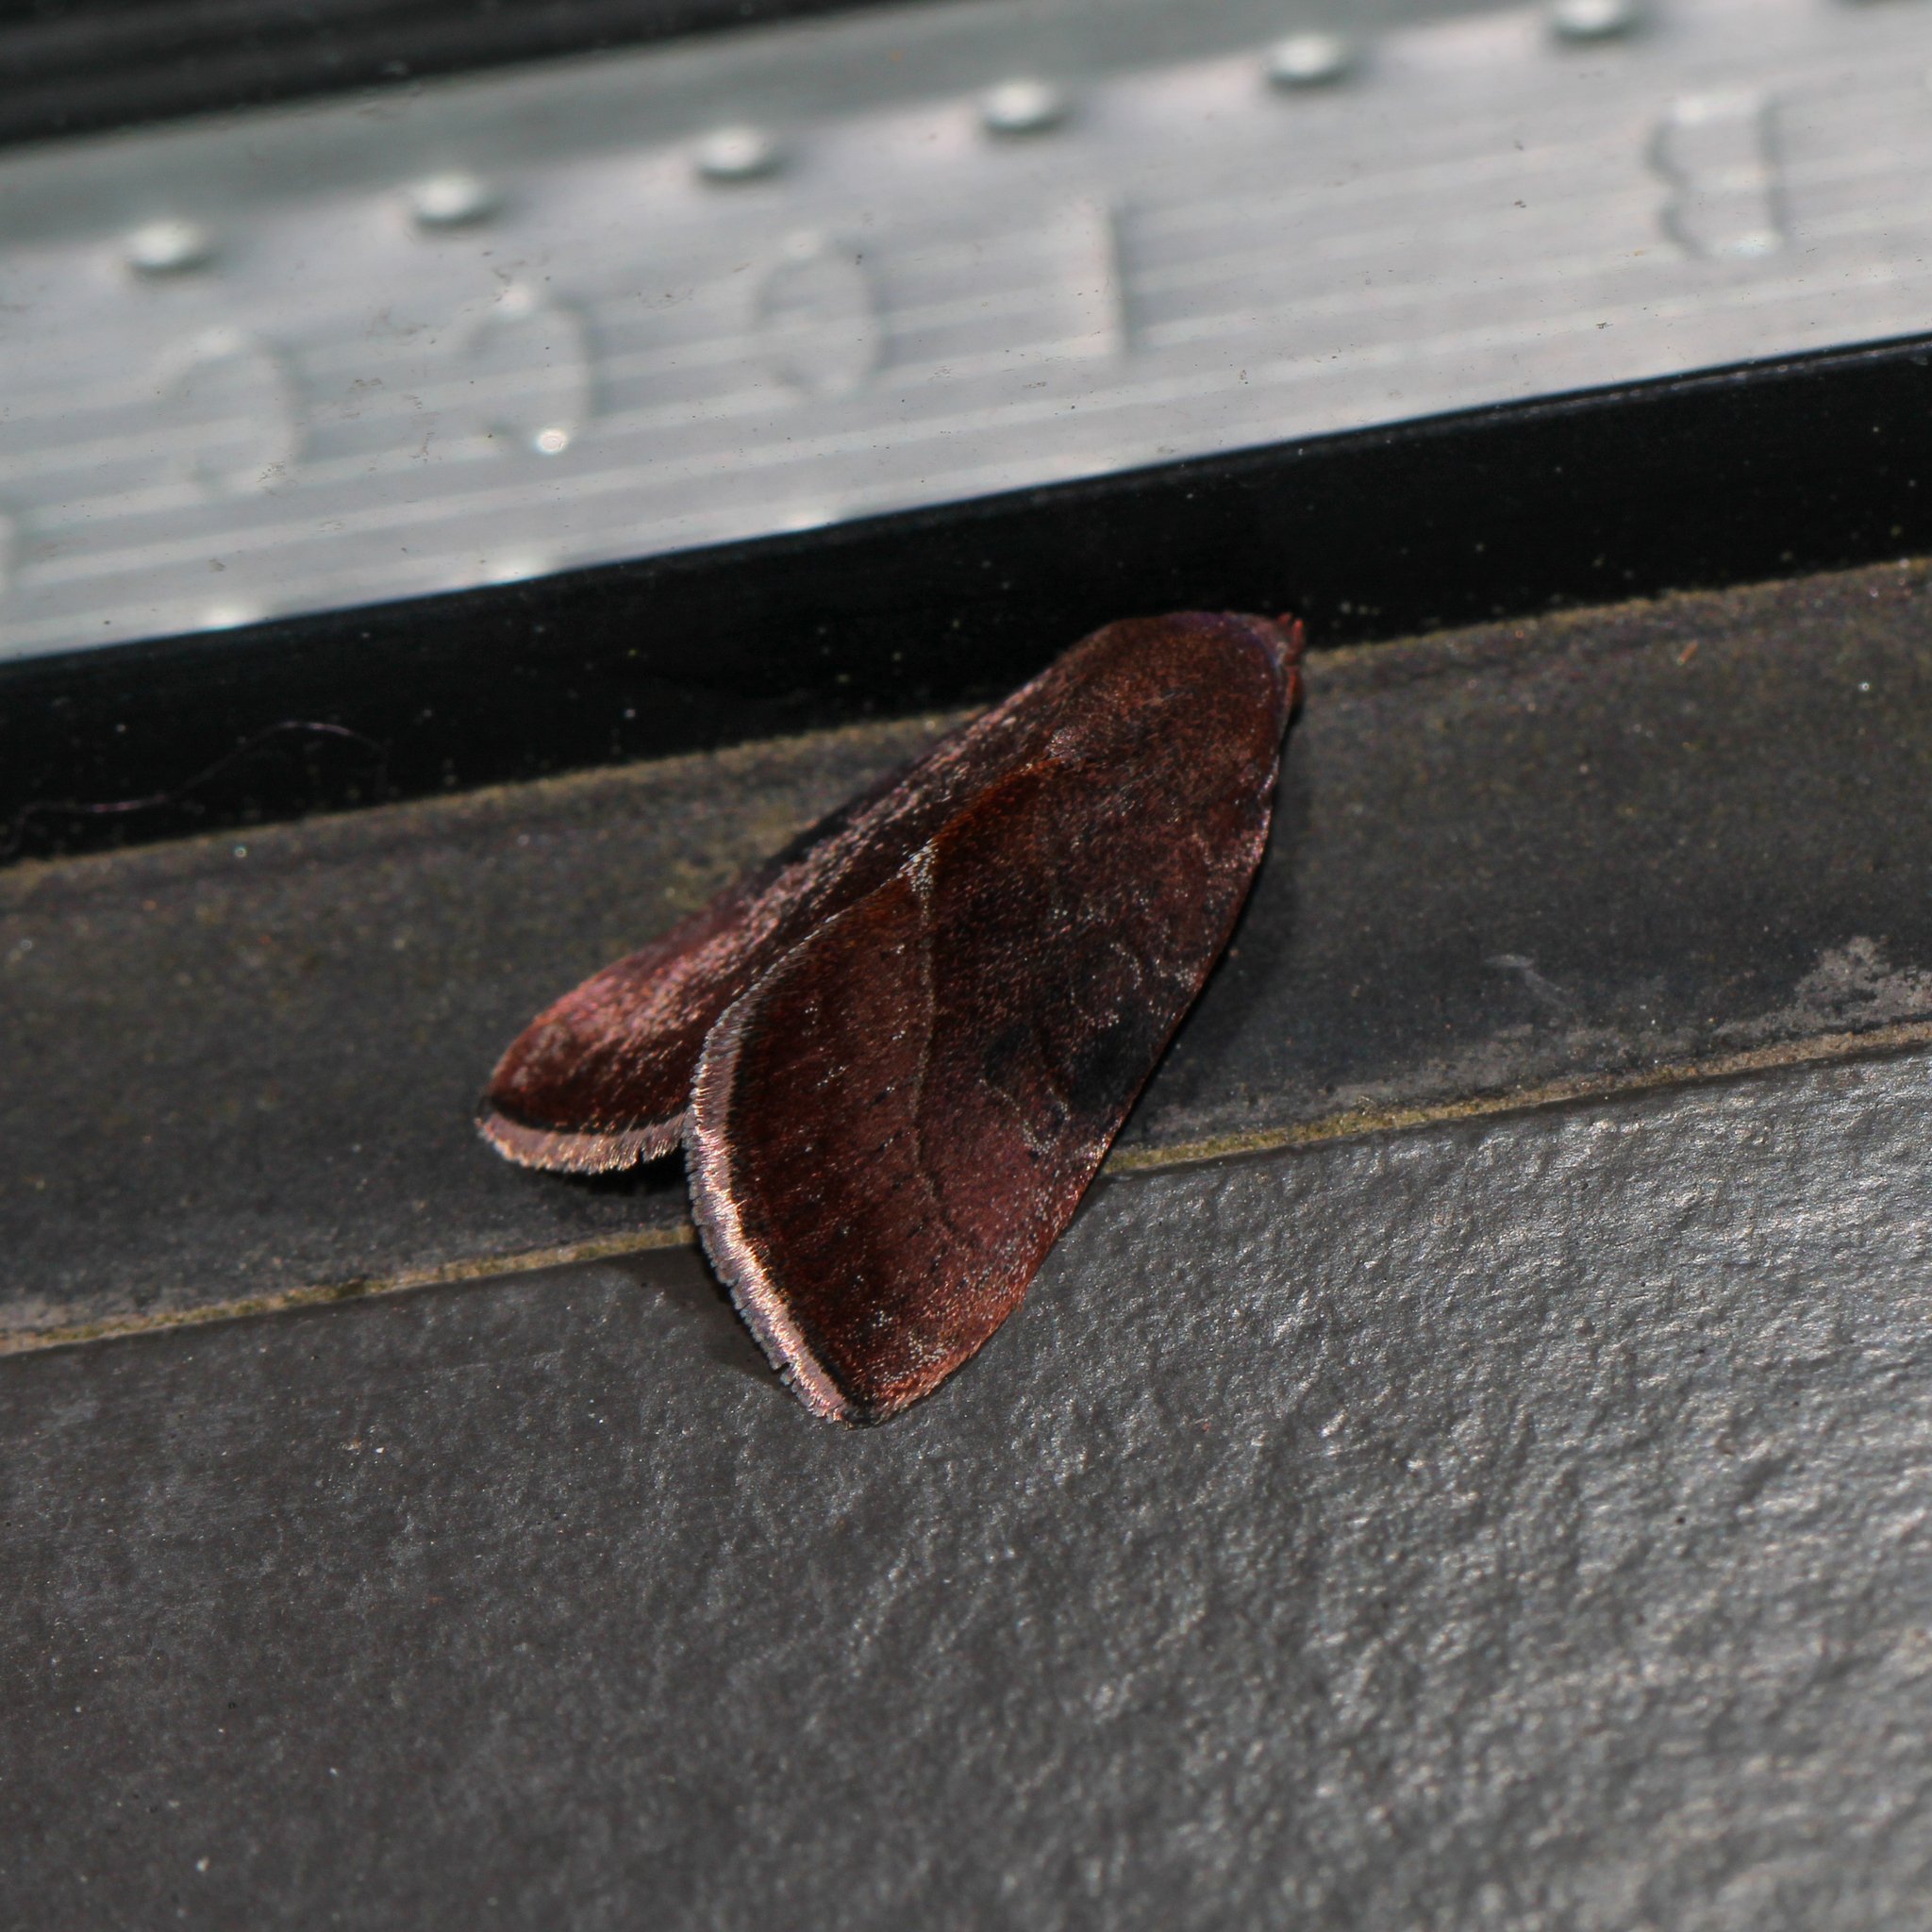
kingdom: Animalia
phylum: Arthropoda
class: Insecta
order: Lepidoptera
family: Noctuidae
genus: Galgula
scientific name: Galgula partita
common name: Wedgeling
